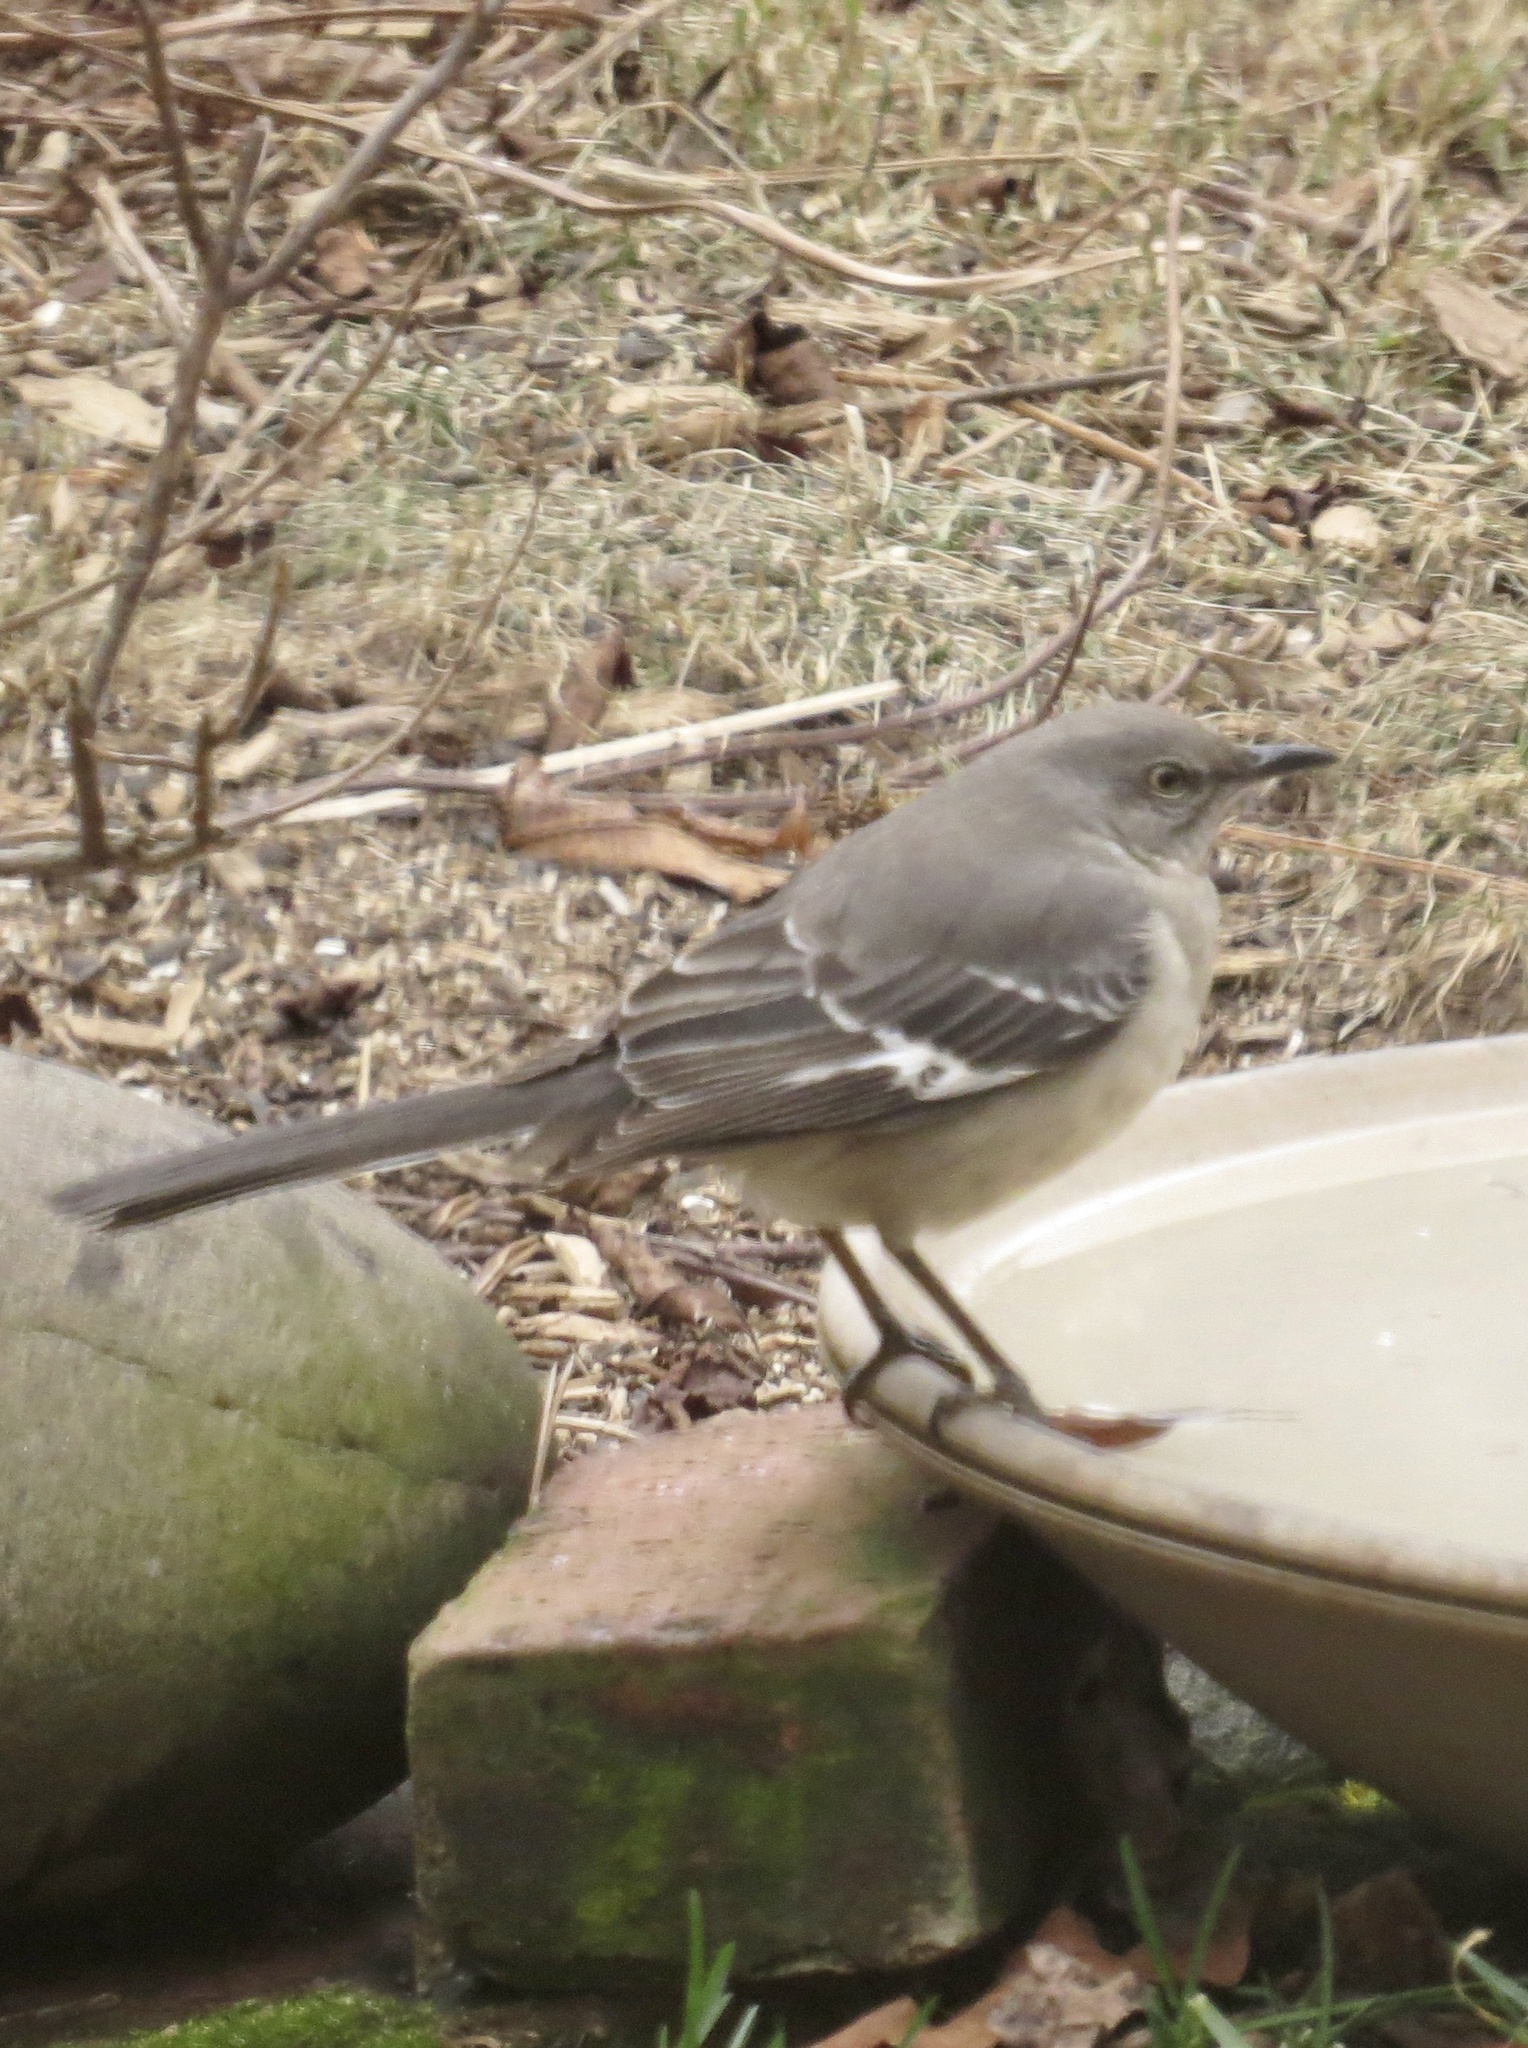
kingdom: Animalia
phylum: Chordata
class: Aves
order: Passeriformes
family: Mimidae
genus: Mimus
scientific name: Mimus polyglottos
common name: Northern mockingbird
